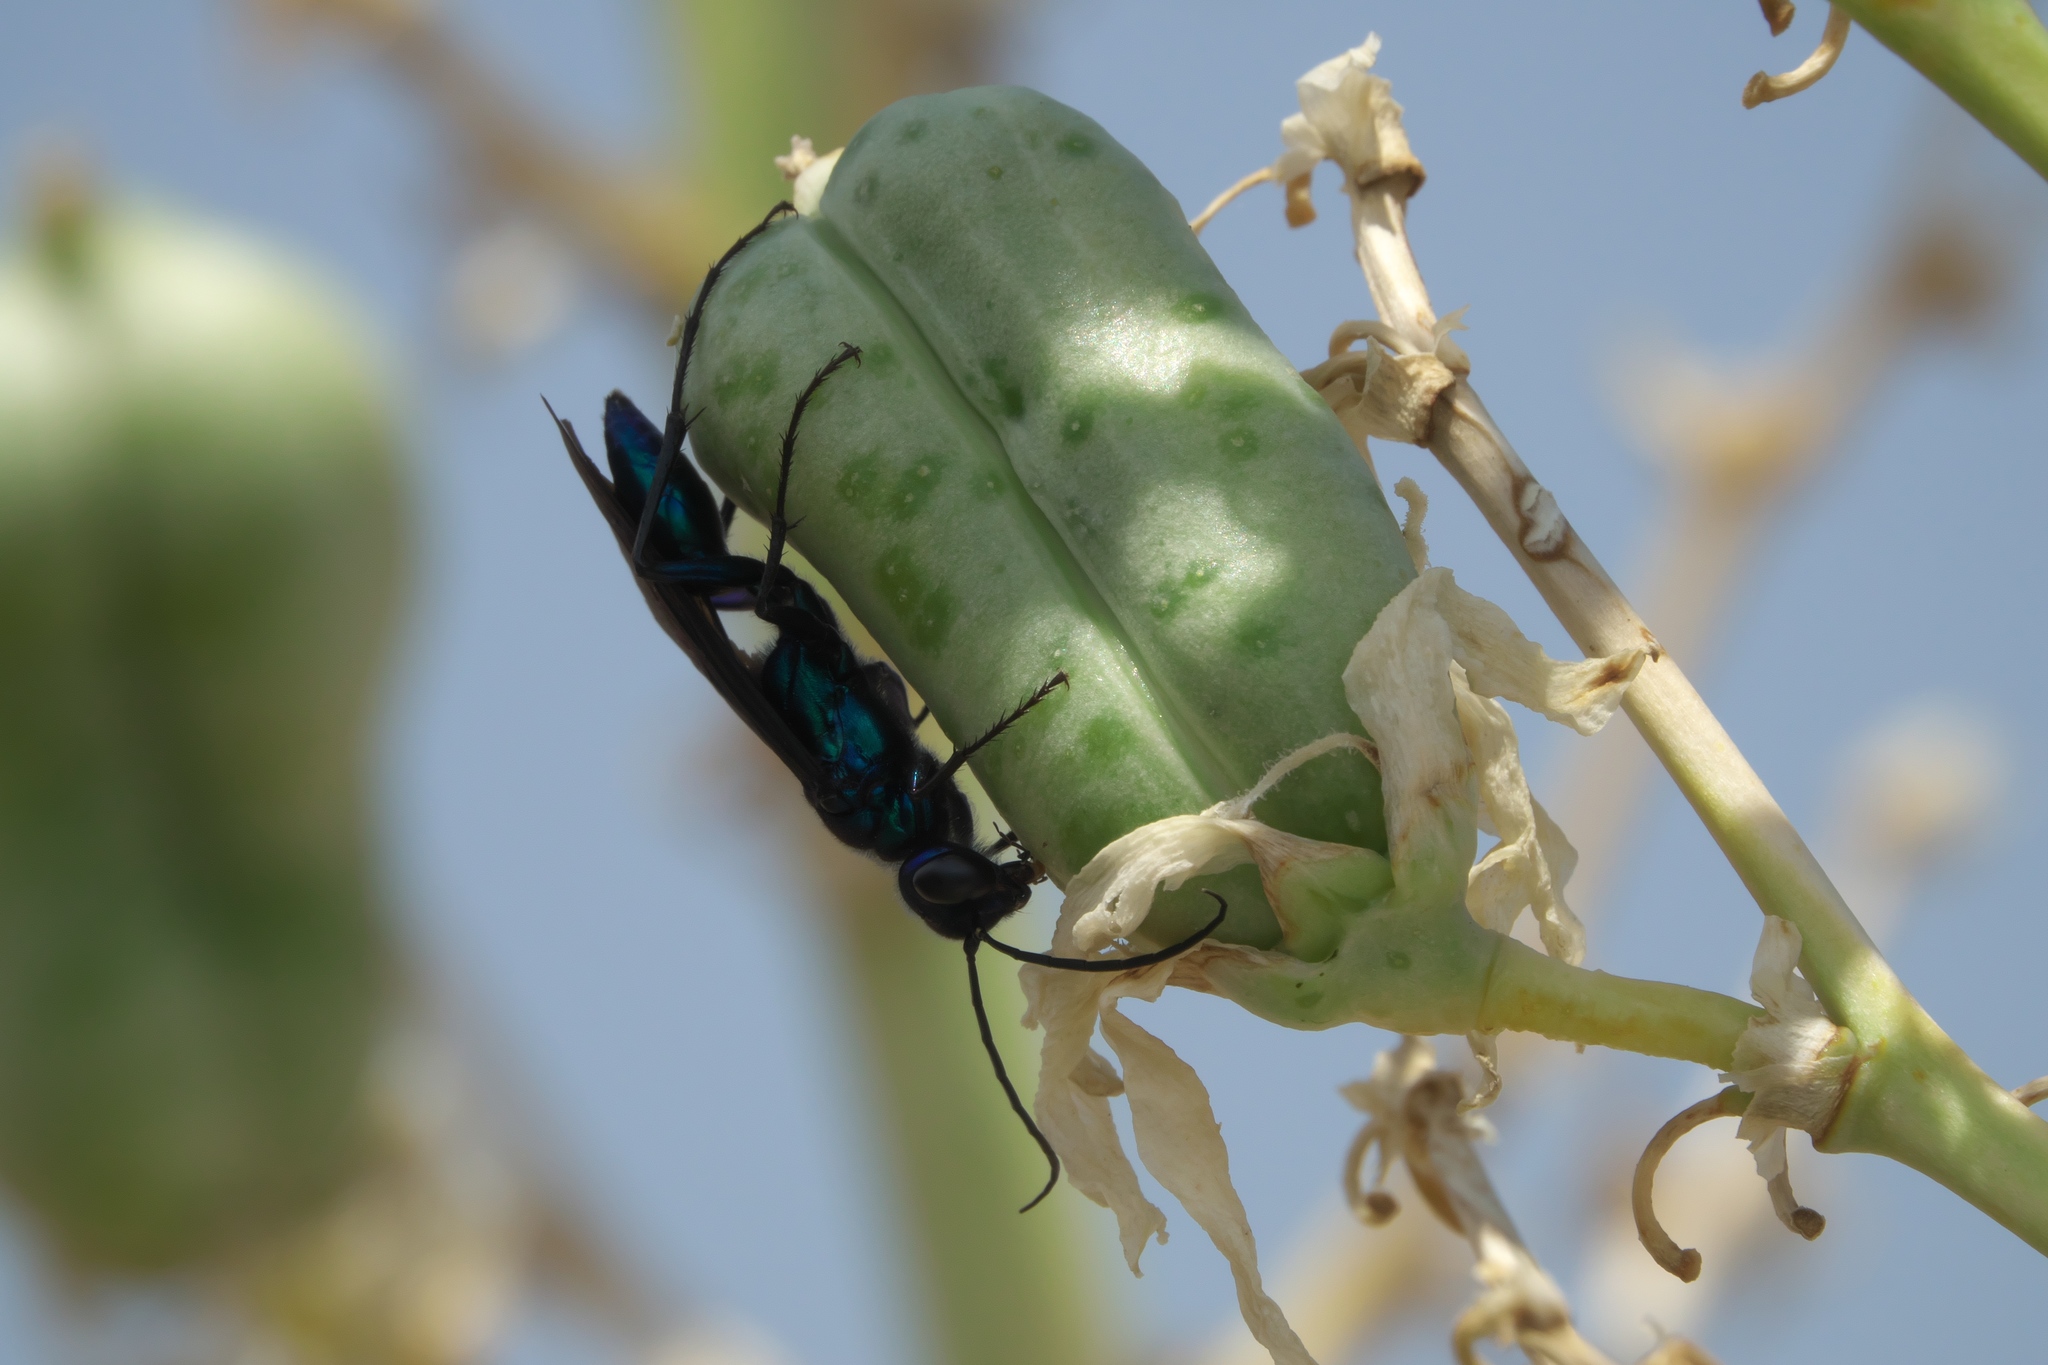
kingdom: Animalia
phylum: Arthropoda
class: Insecta
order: Hymenoptera
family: Sphecidae
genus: Chalybion
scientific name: Chalybion californicum
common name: Mud dauber
